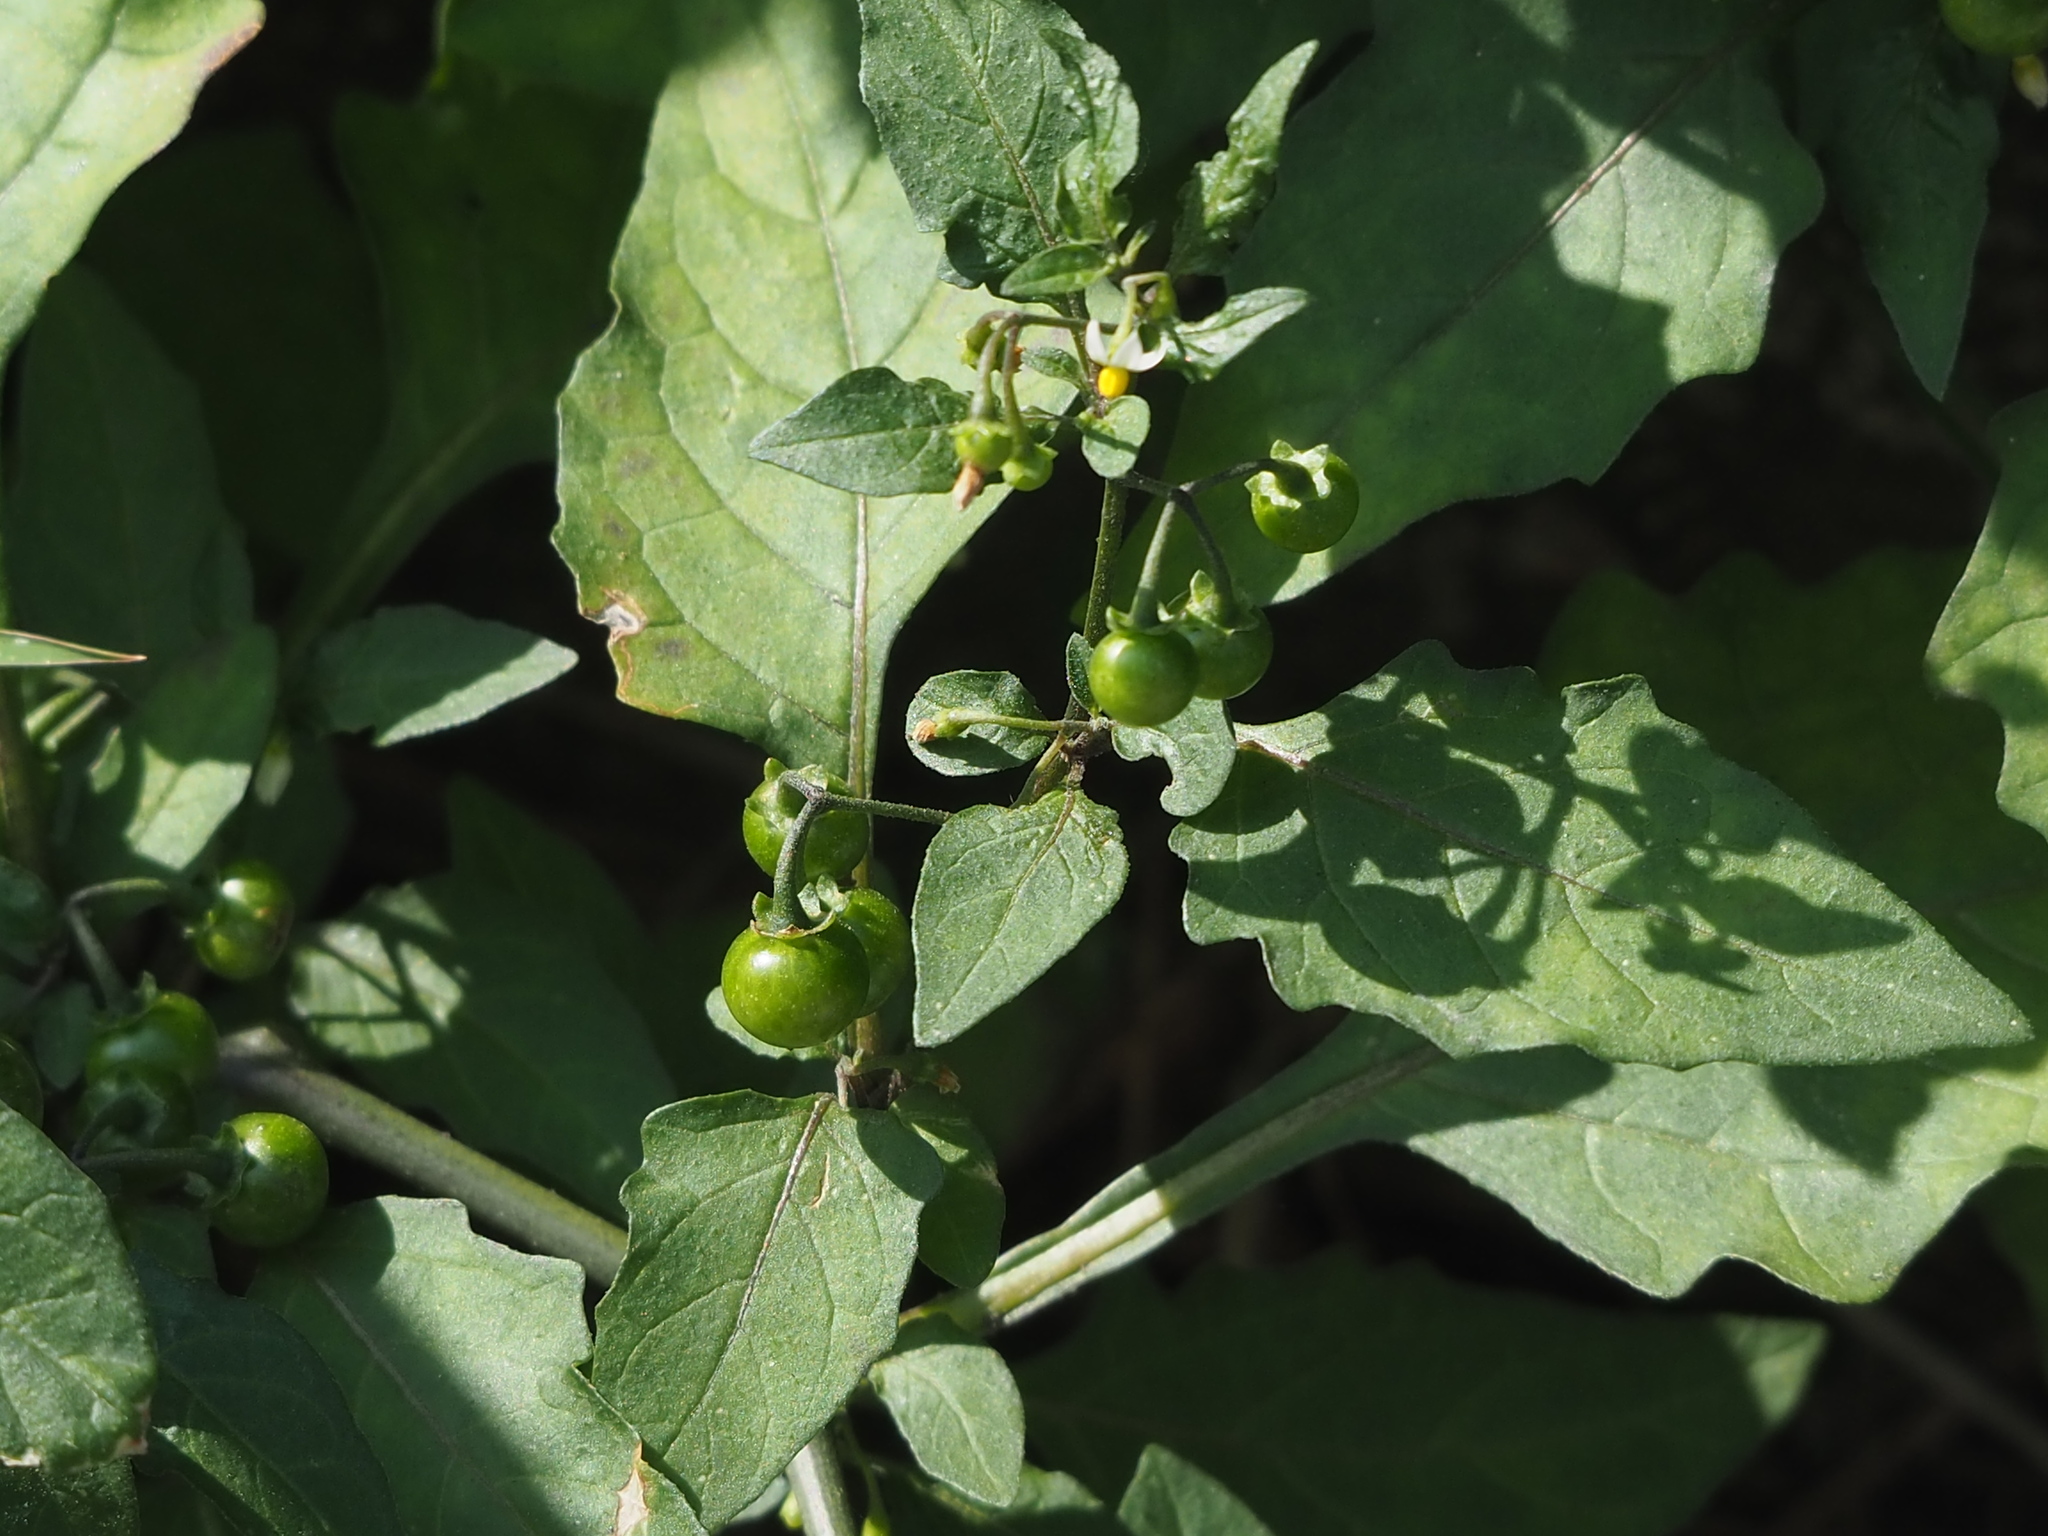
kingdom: Plantae
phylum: Tracheophyta
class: Magnoliopsida
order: Solanales
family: Solanaceae
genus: Solanum
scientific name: Solanum americanum
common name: American black nightshade
